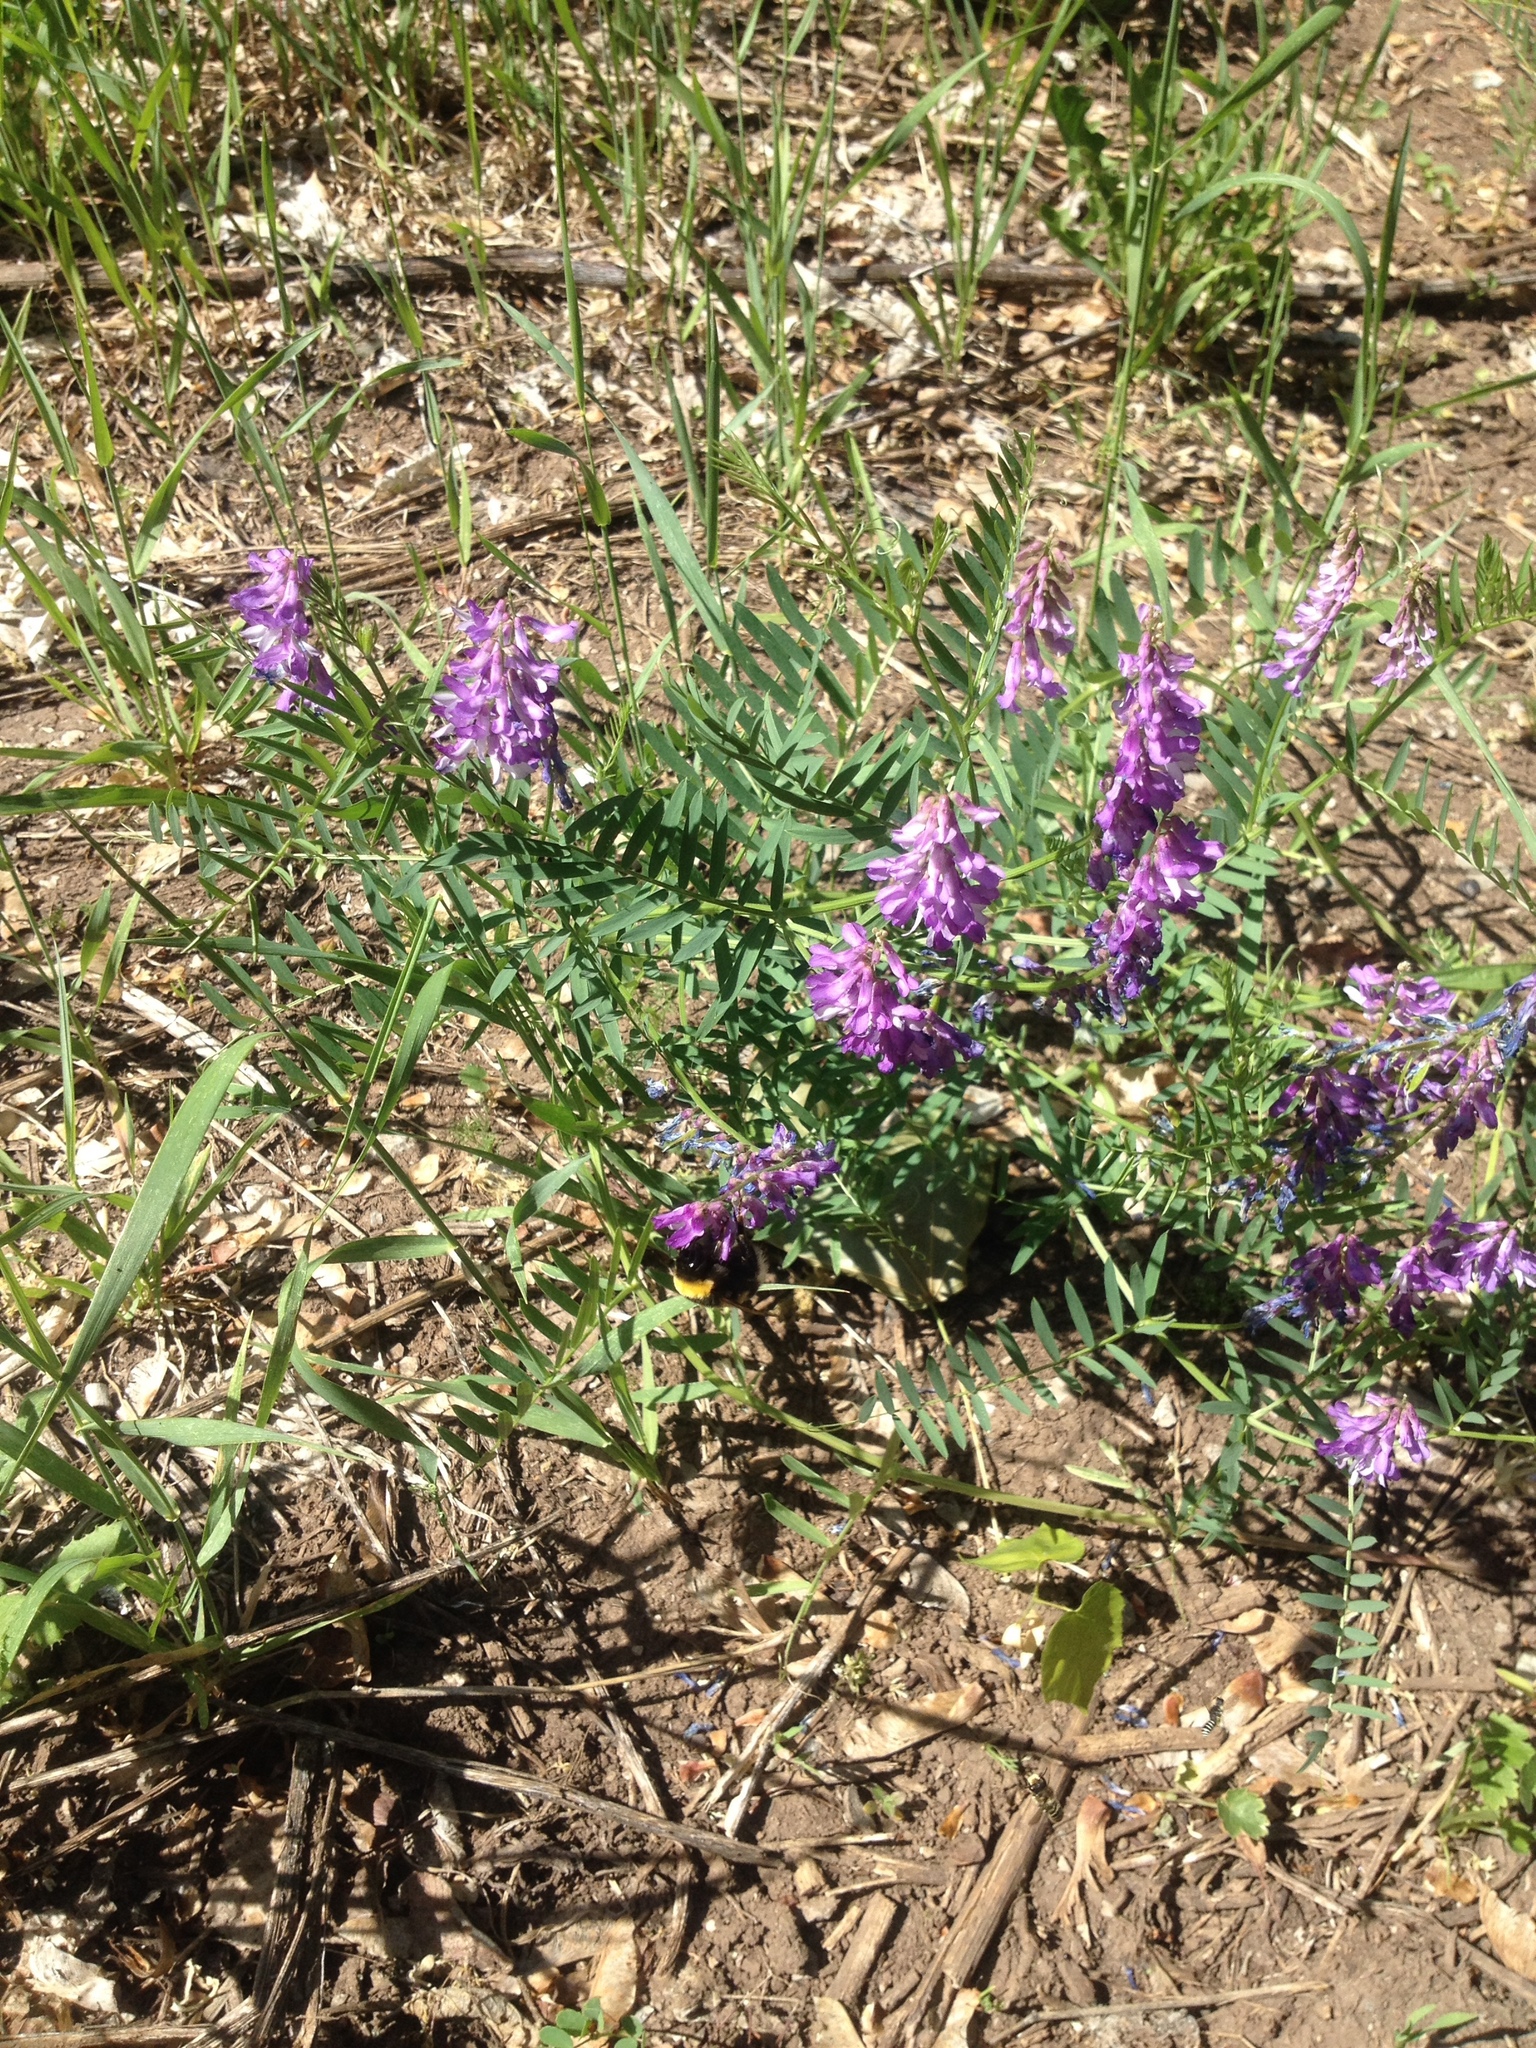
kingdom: Plantae
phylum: Tracheophyta
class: Magnoliopsida
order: Fabales
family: Fabaceae
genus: Vicia
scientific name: Vicia cracca
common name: Bird vetch
